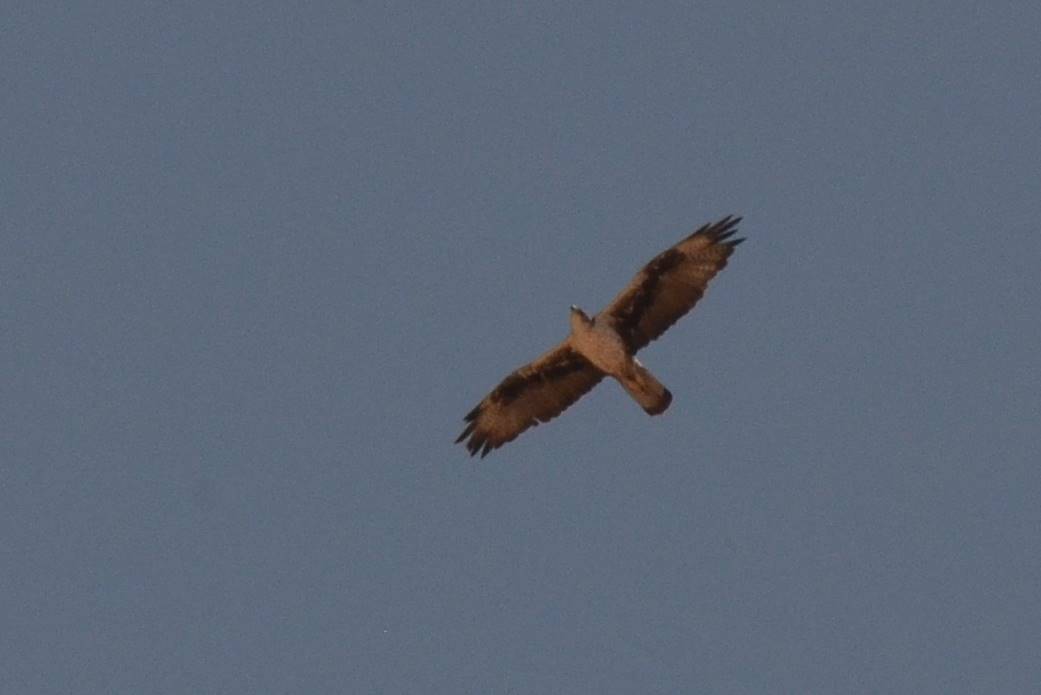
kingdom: Animalia
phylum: Chordata
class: Aves
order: Accipitriformes
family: Accipitridae
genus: Aquila
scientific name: Aquila fasciata
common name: Bonelli's eagle
